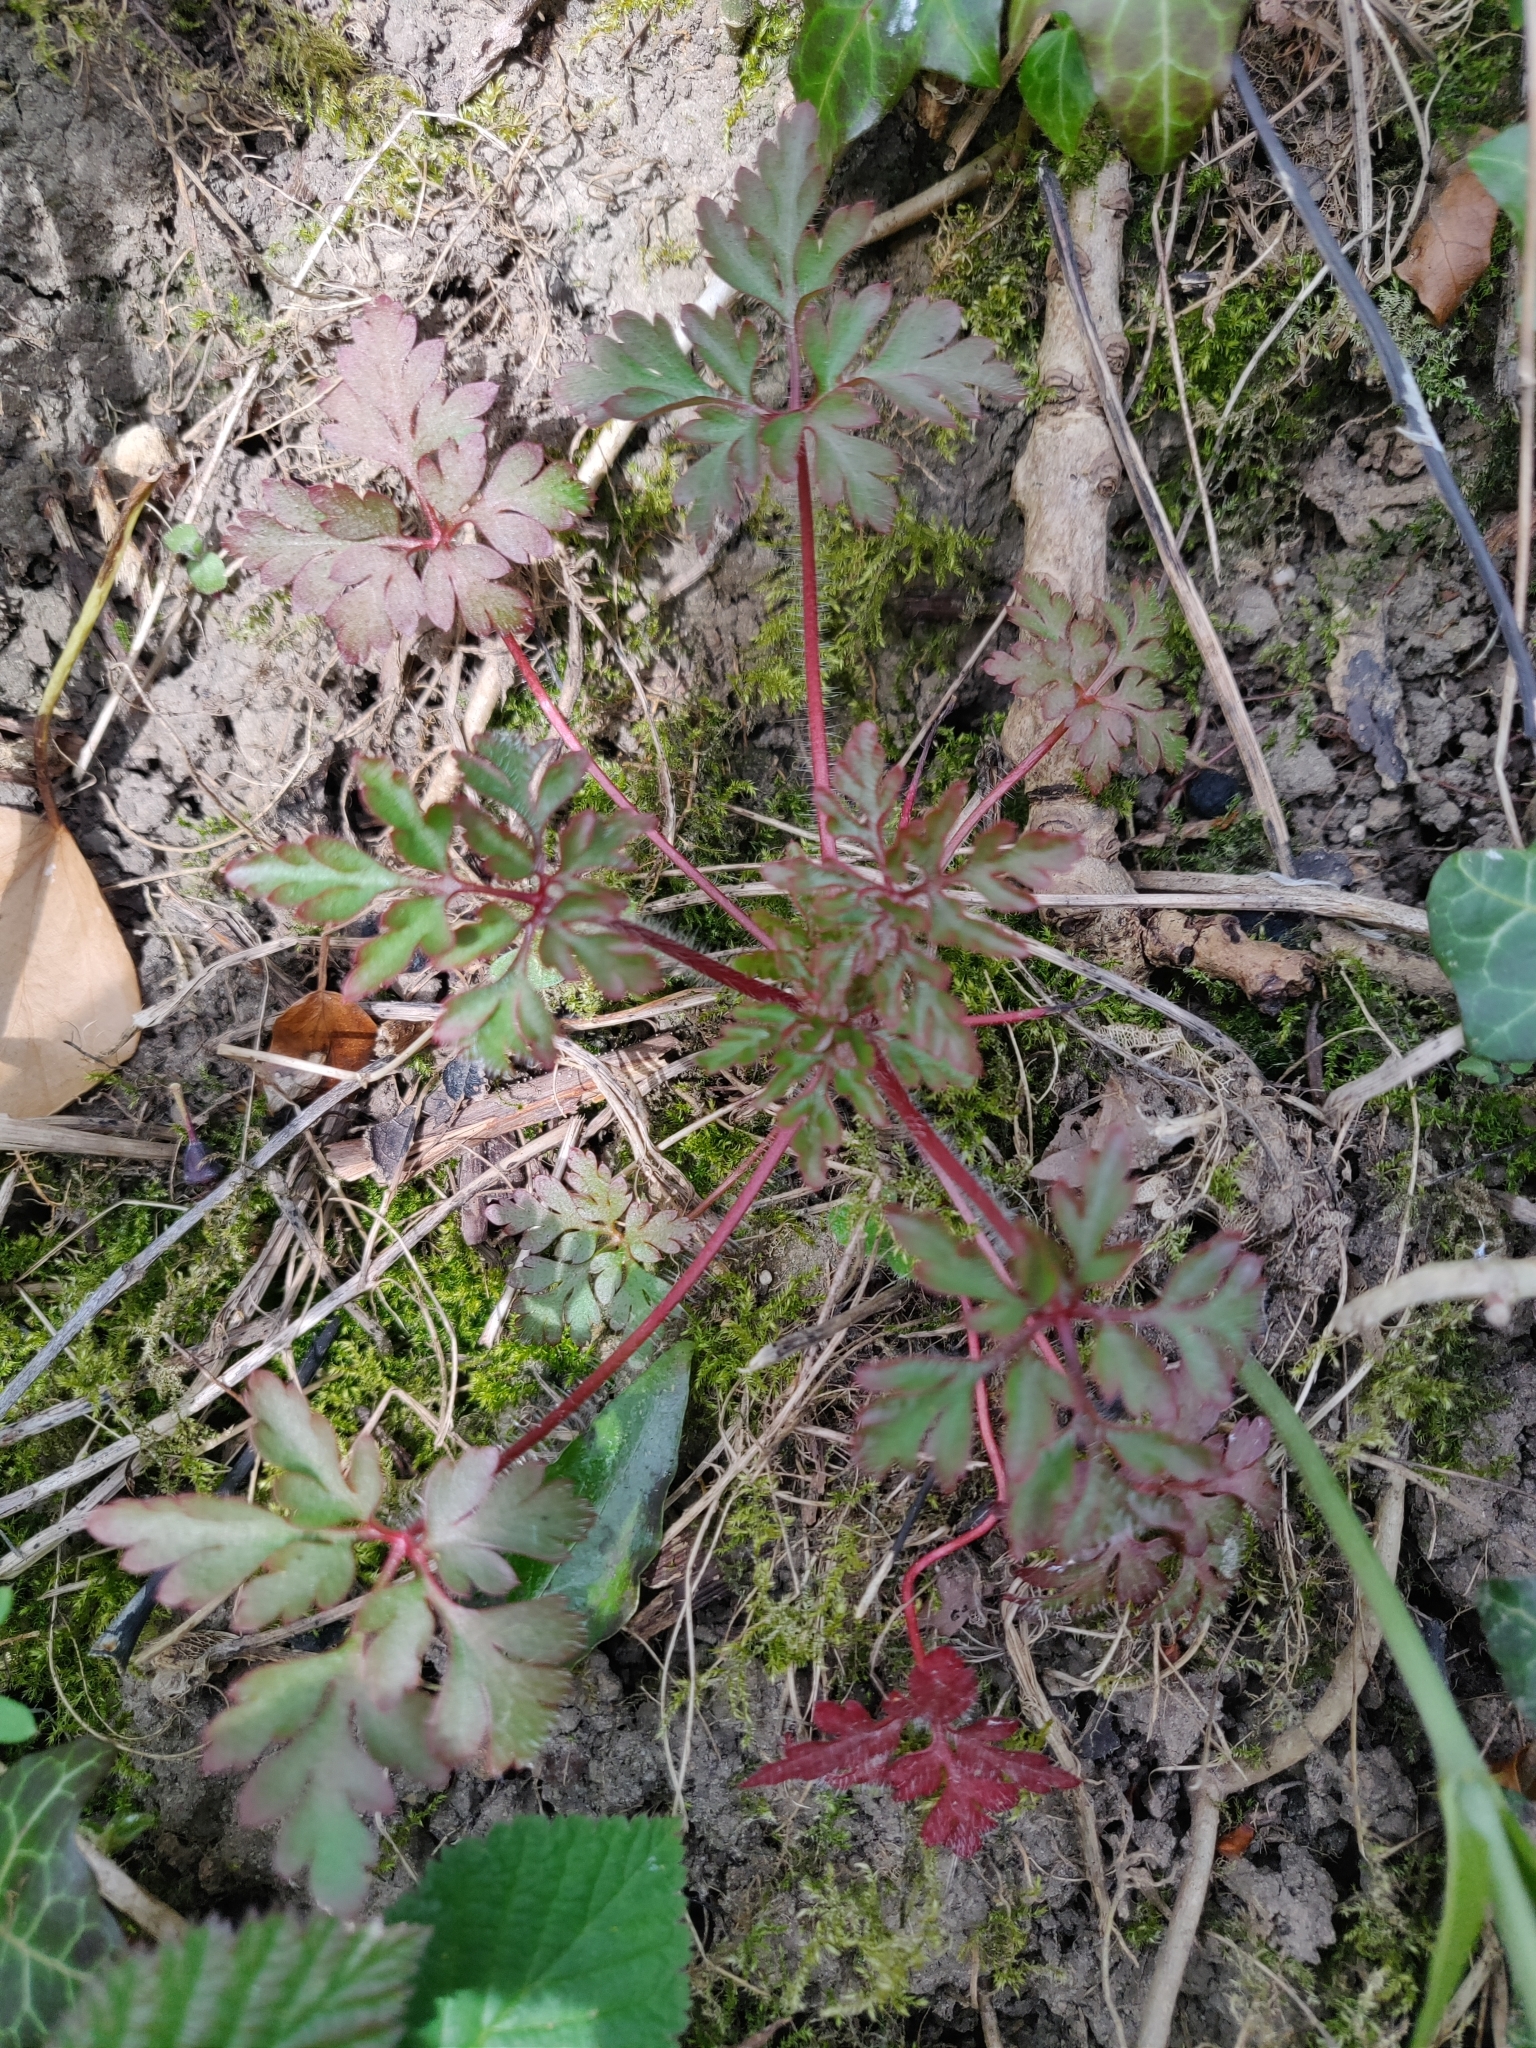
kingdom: Plantae
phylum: Tracheophyta
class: Magnoliopsida
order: Geraniales
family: Geraniaceae
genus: Geranium
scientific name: Geranium robertianum
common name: Herb-robert
